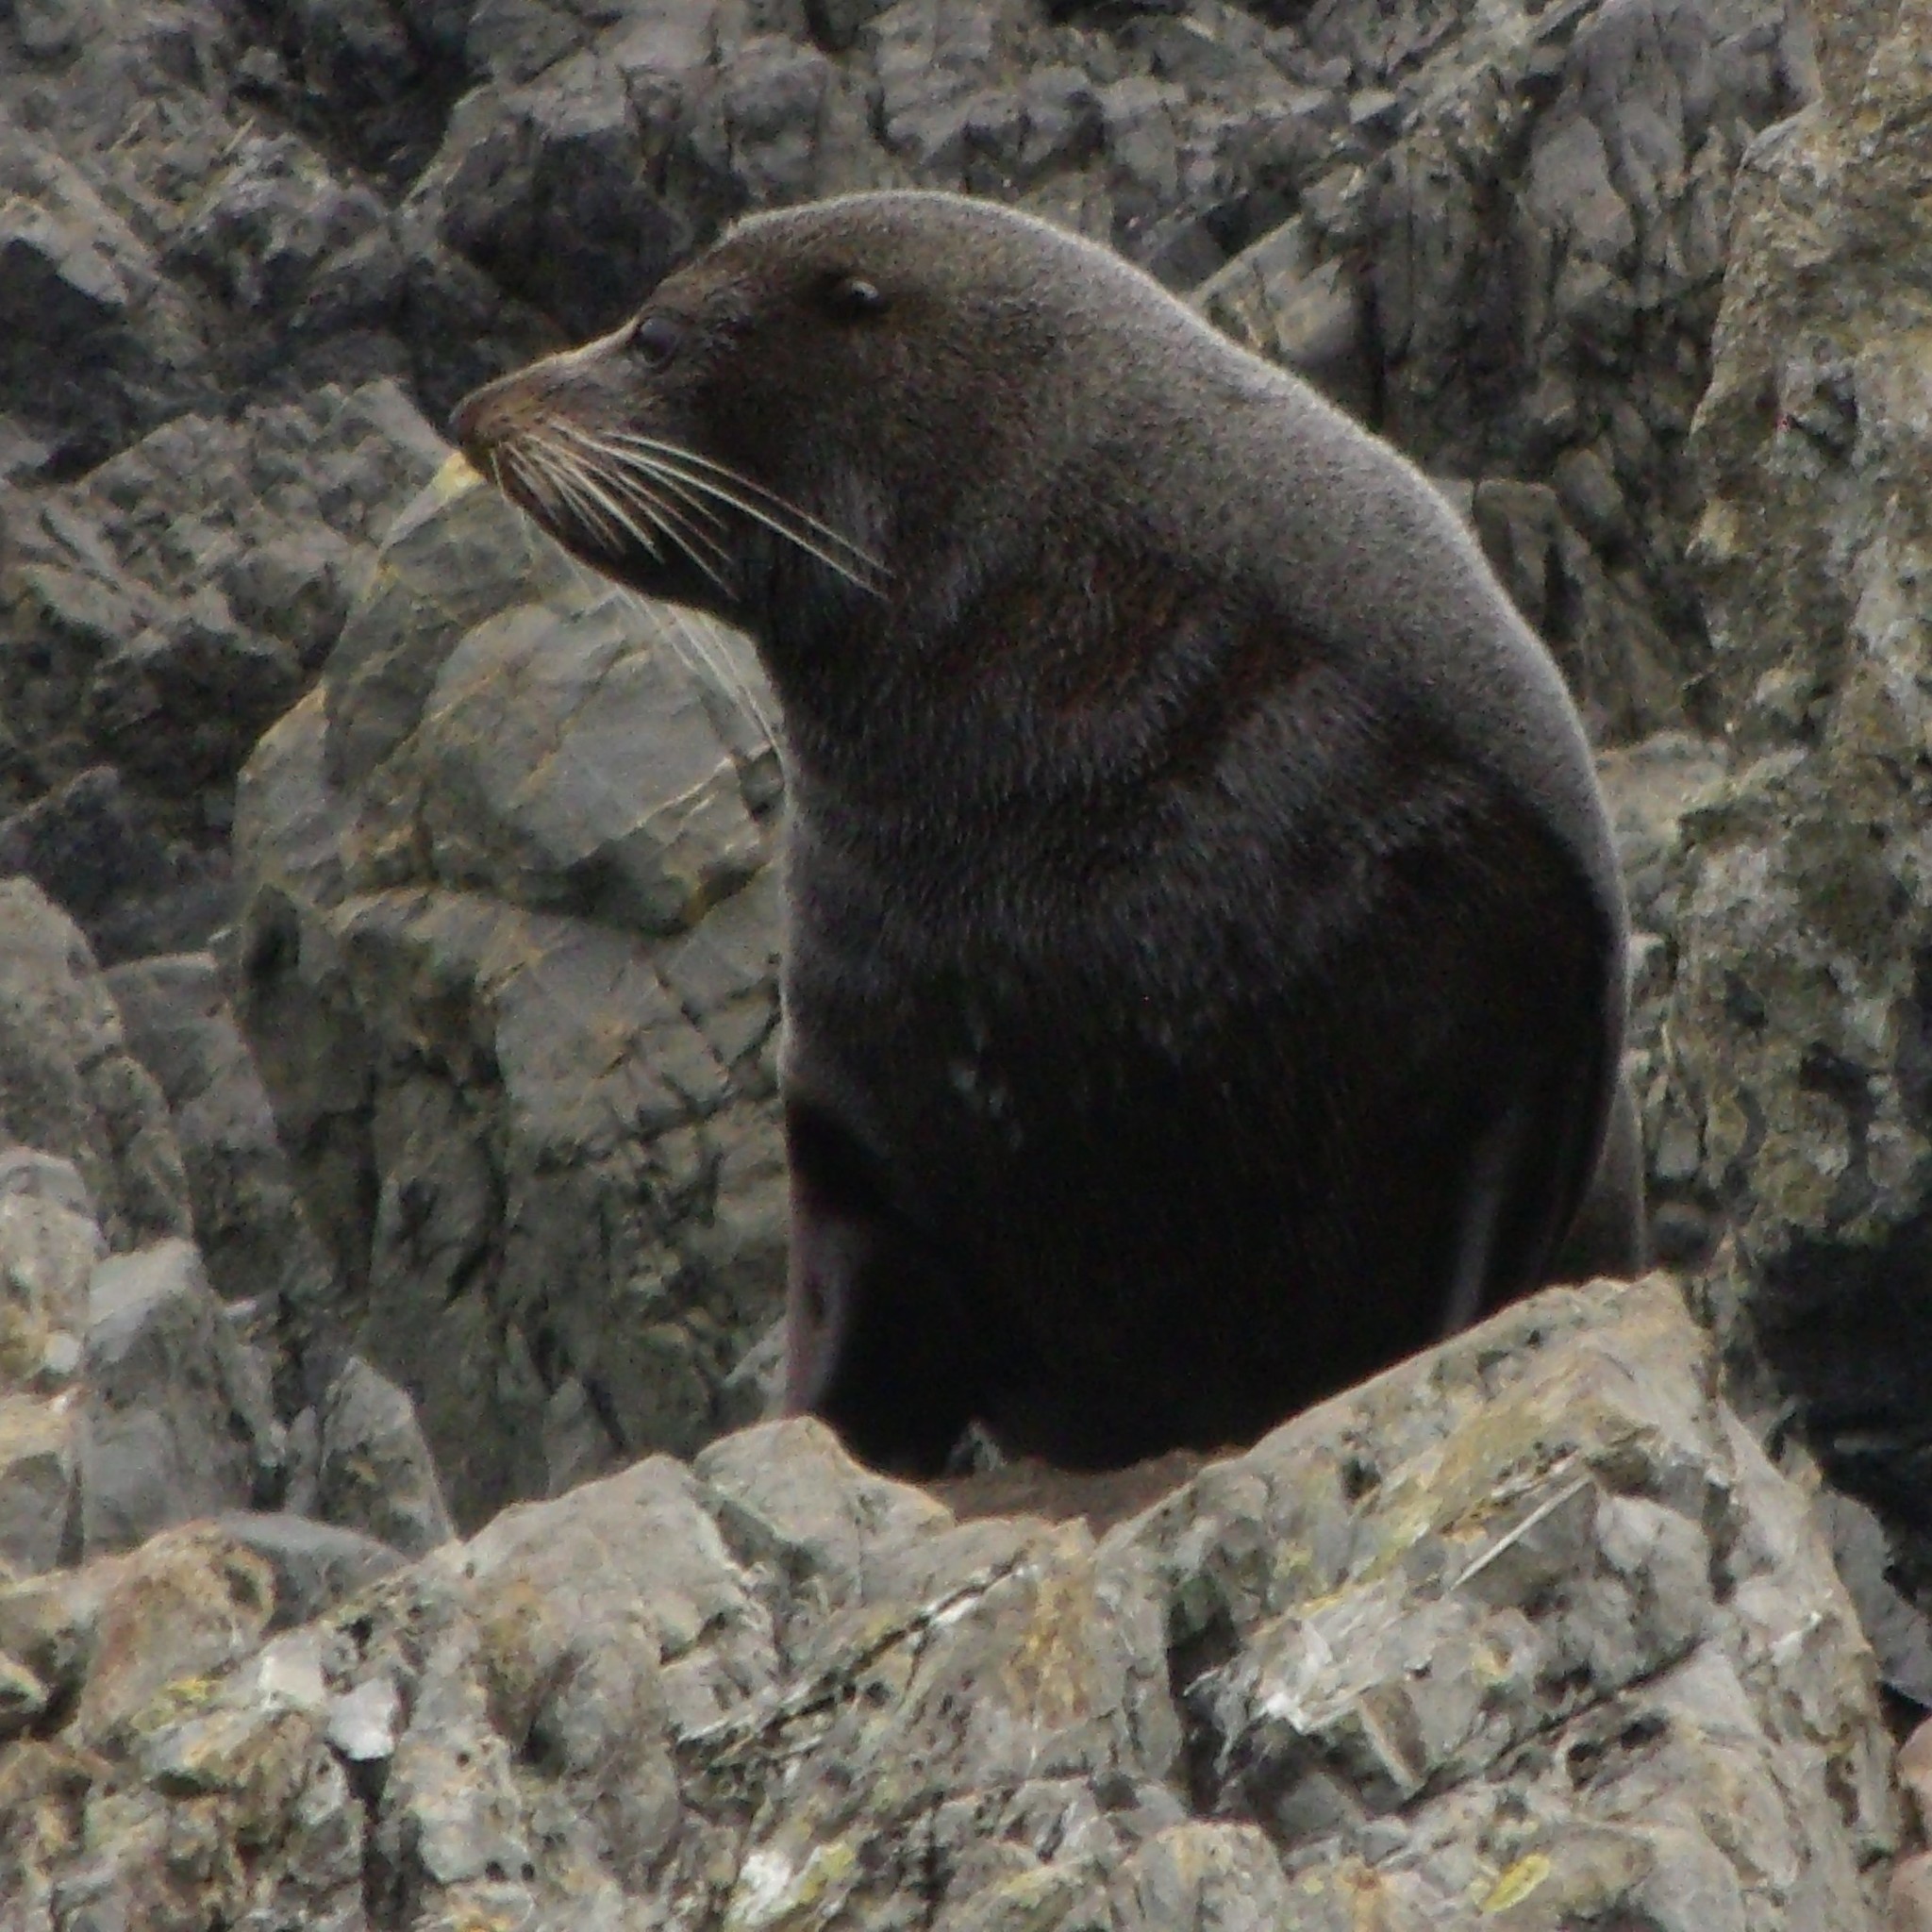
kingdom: Animalia
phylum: Chordata
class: Mammalia
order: Carnivora
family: Otariidae
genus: Arctocephalus
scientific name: Arctocephalus forsteri
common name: New zealand fur seal
